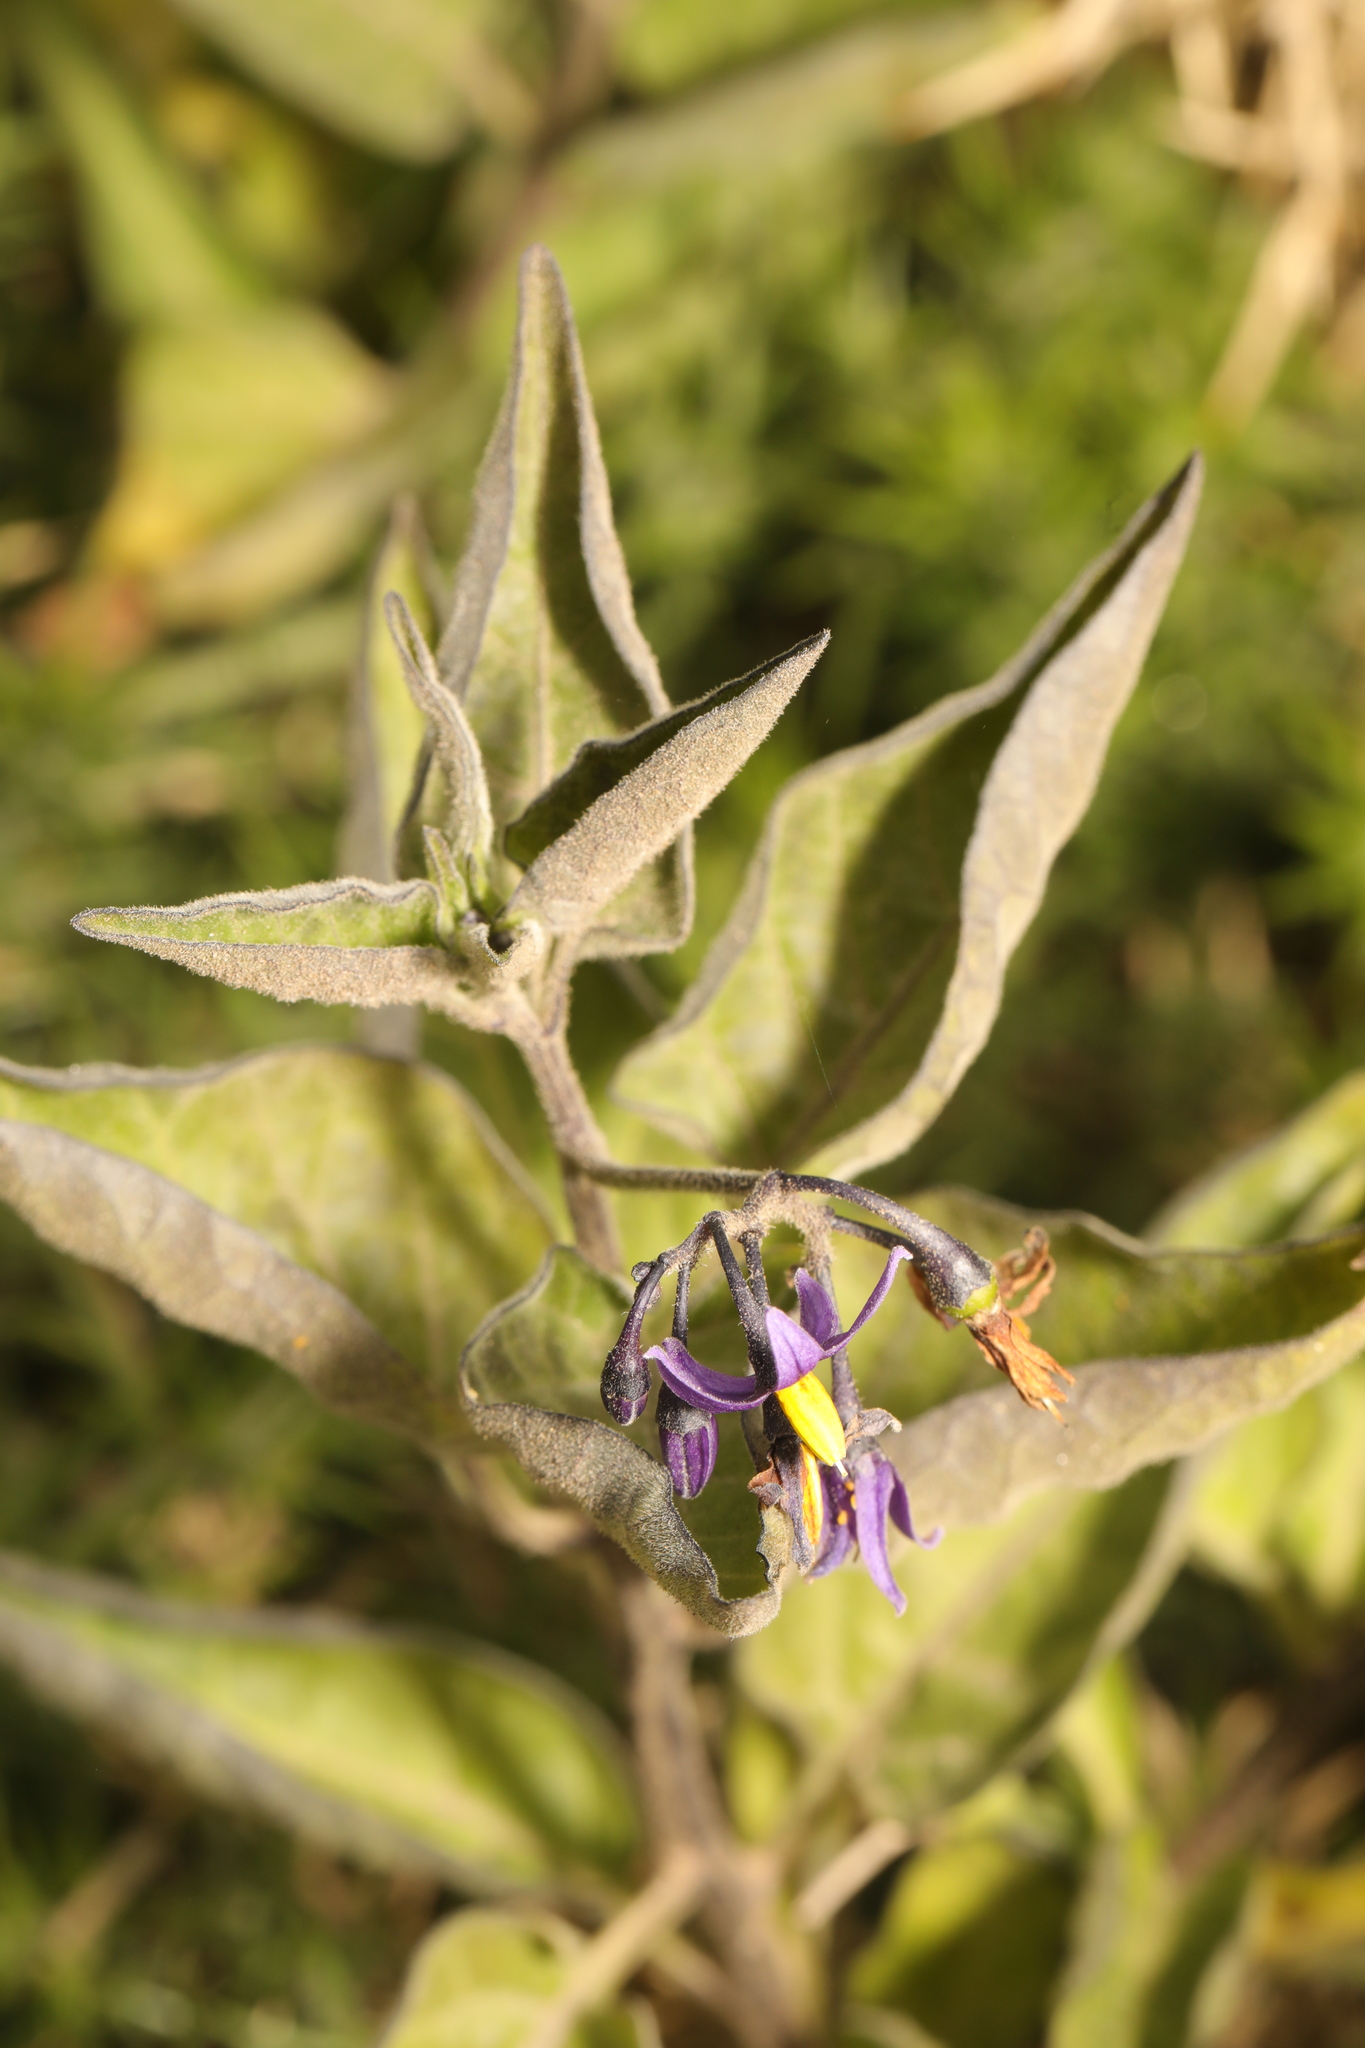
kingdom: Plantae
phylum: Tracheophyta
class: Magnoliopsida
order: Solanales
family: Solanaceae
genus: Solanum
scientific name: Solanum dulcamara
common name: Climbing nightshade
